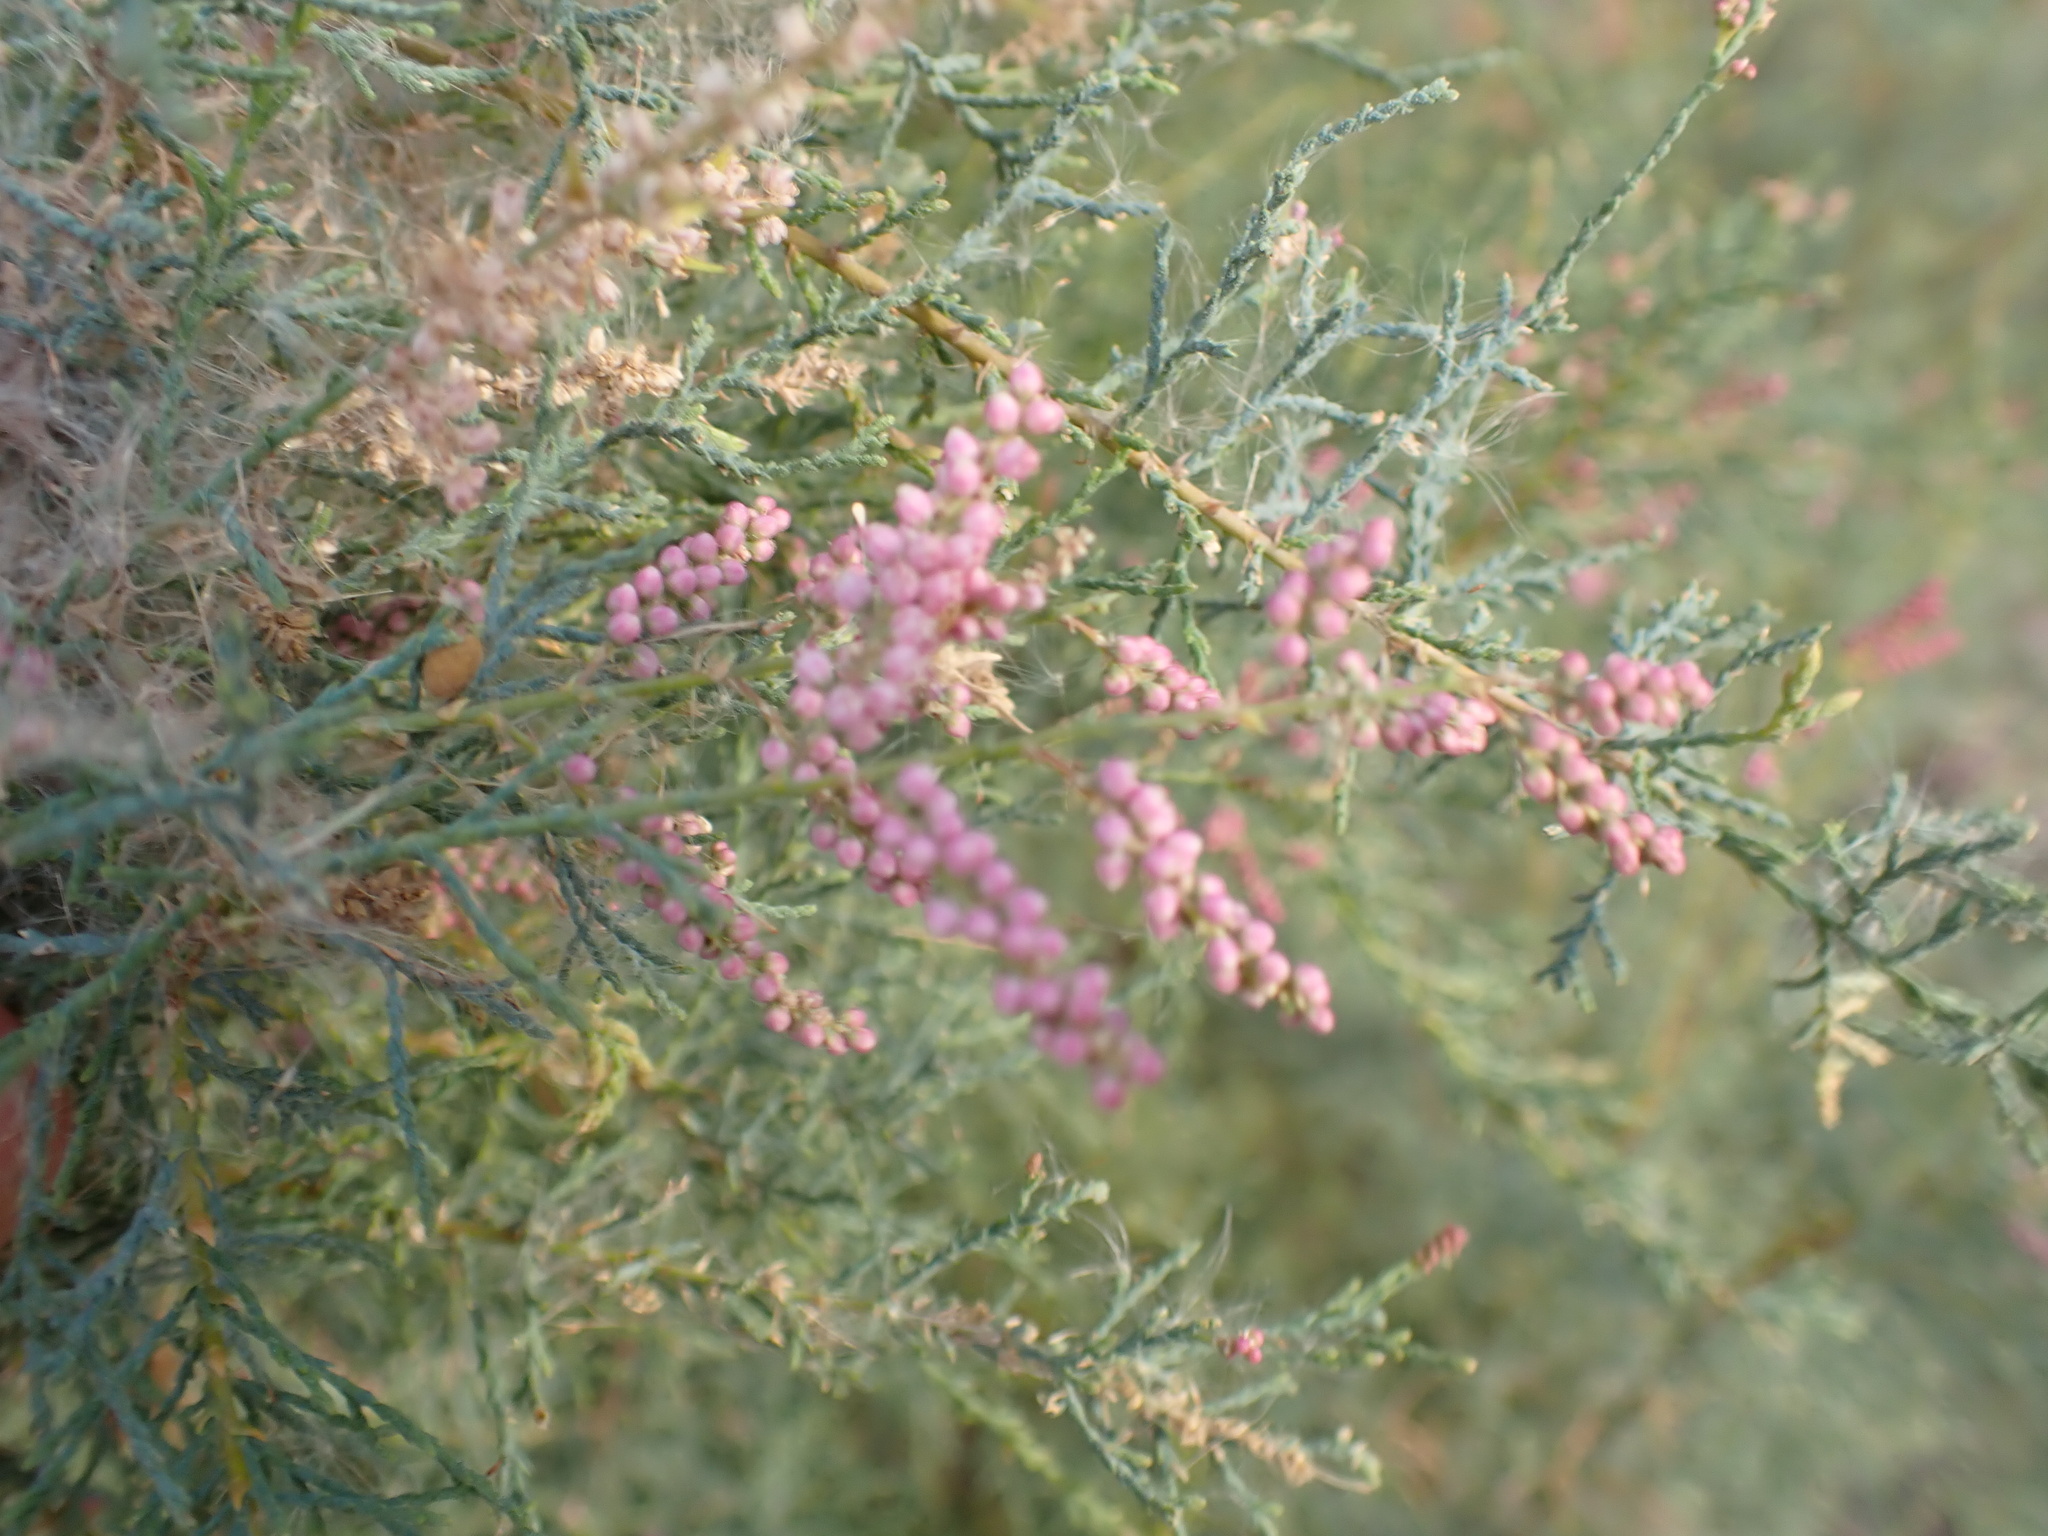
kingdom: Plantae
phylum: Tracheophyta
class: Magnoliopsida
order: Caryophyllales
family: Tamaricaceae
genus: Tamarix
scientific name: Tamarix ramosissima
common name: Pink tamarisk
